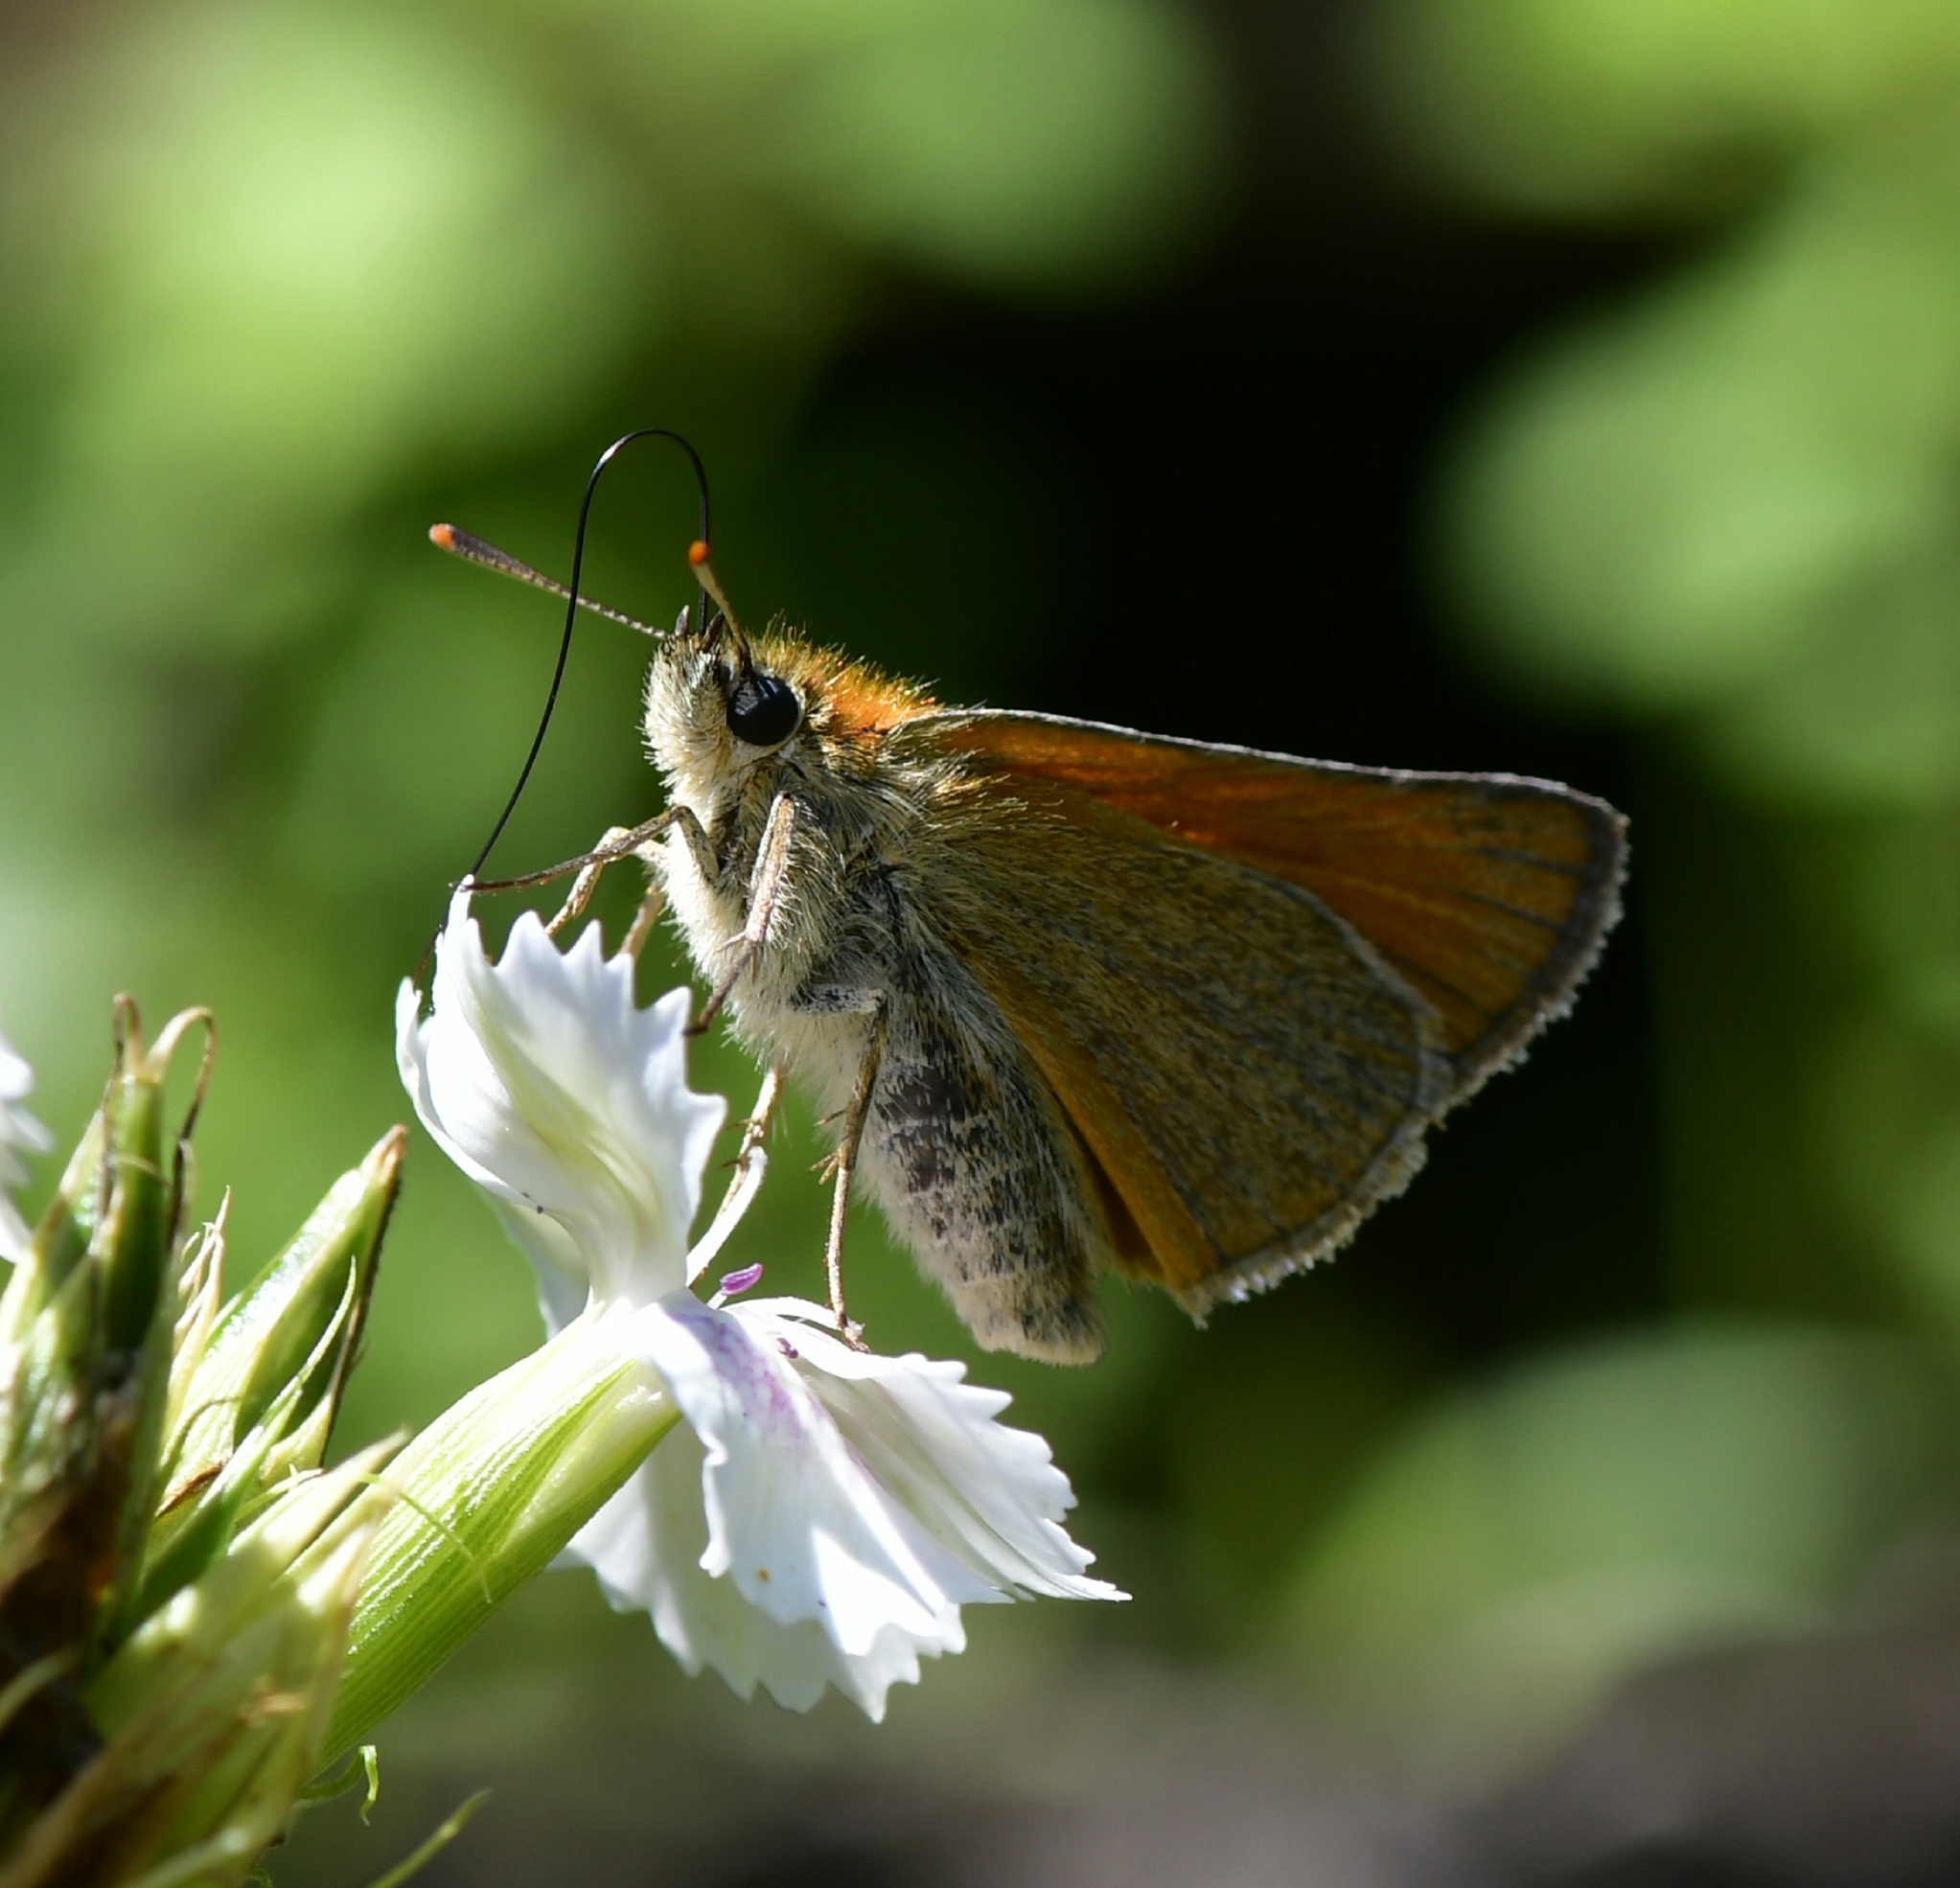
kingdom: Animalia
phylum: Arthropoda
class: Insecta
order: Lepidoptera
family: Hesperiidae
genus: Thymelicus
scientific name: Thymelicus sylvestris
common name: Small skipper
